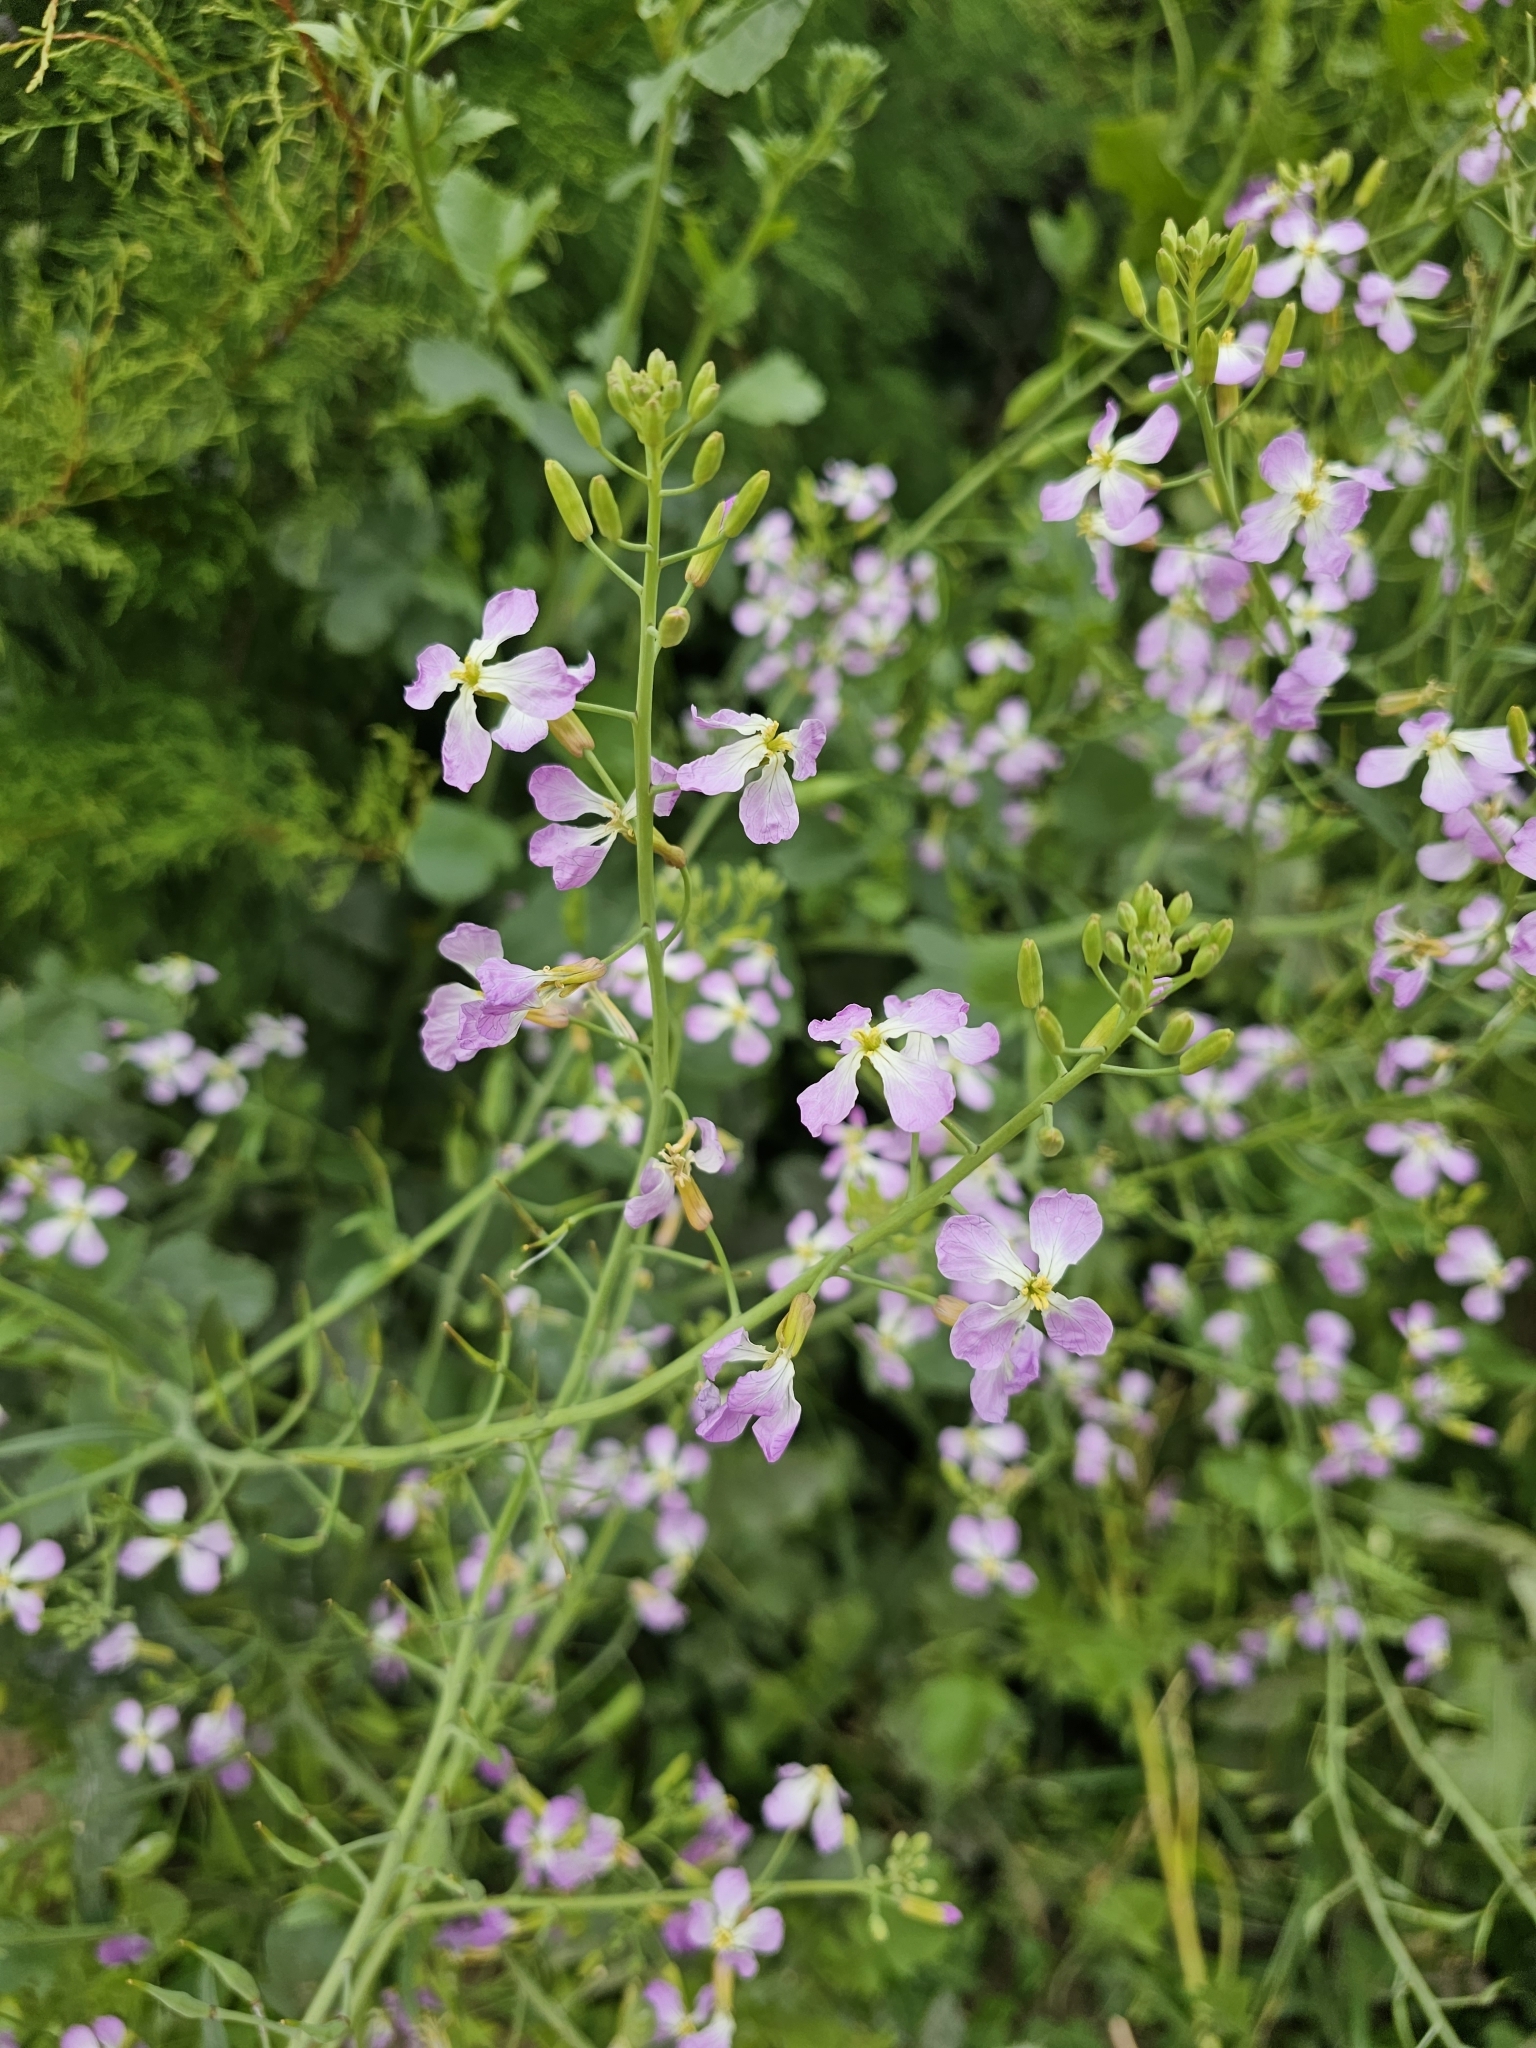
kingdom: Plantae
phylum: Tracheophyta
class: Magnoliopsida
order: Brassicales
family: Brassicaceae
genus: Raphanus
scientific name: Raphanus sativus
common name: Cultivated radish
